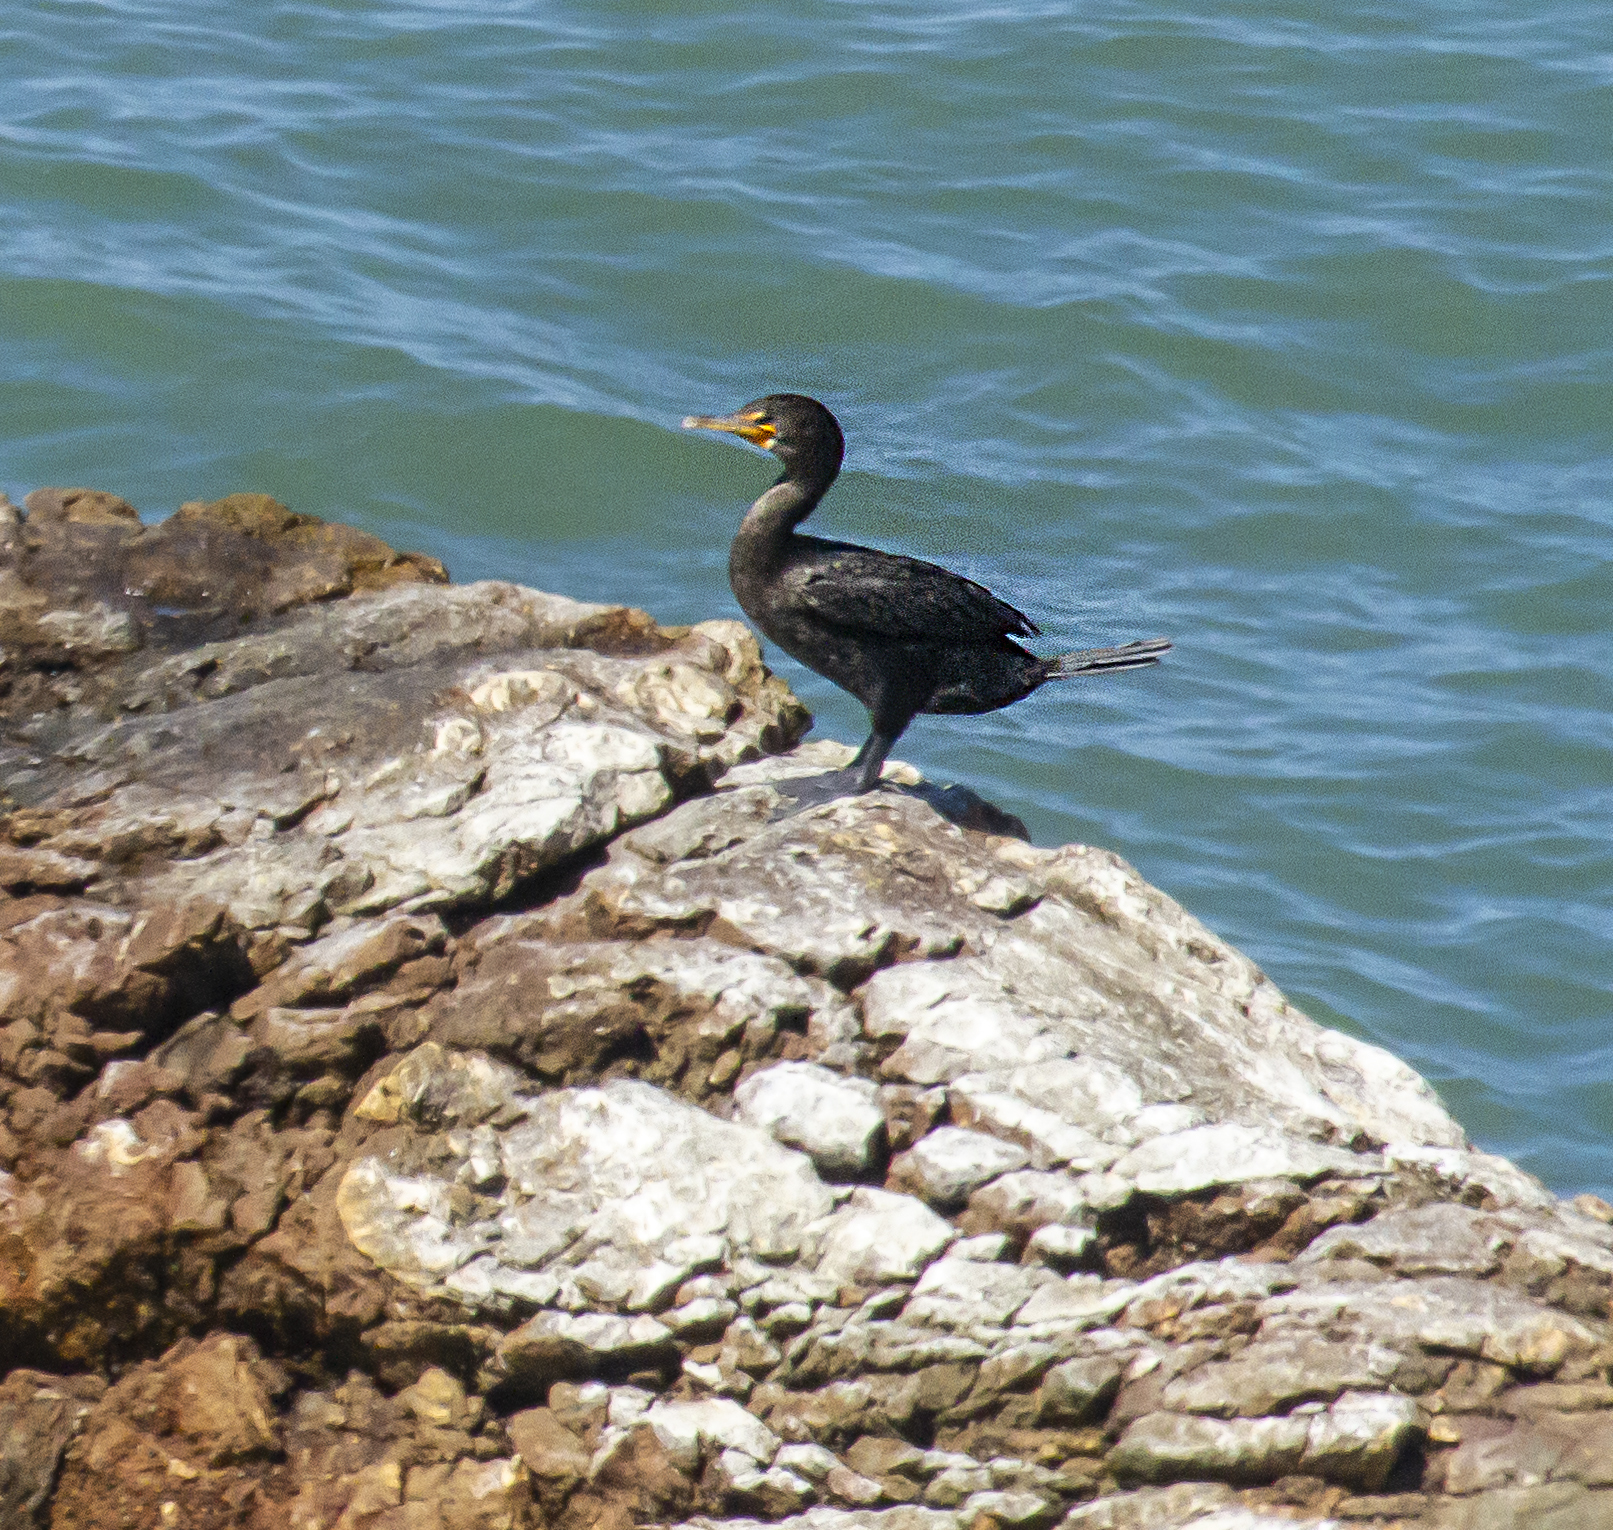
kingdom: Animalia
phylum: Chordata
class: Aves
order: Suliformes
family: Phalacrocoracidae
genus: Phalacrocorax
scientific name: Phalacrocorax auritus
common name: Double-crested cormorant
